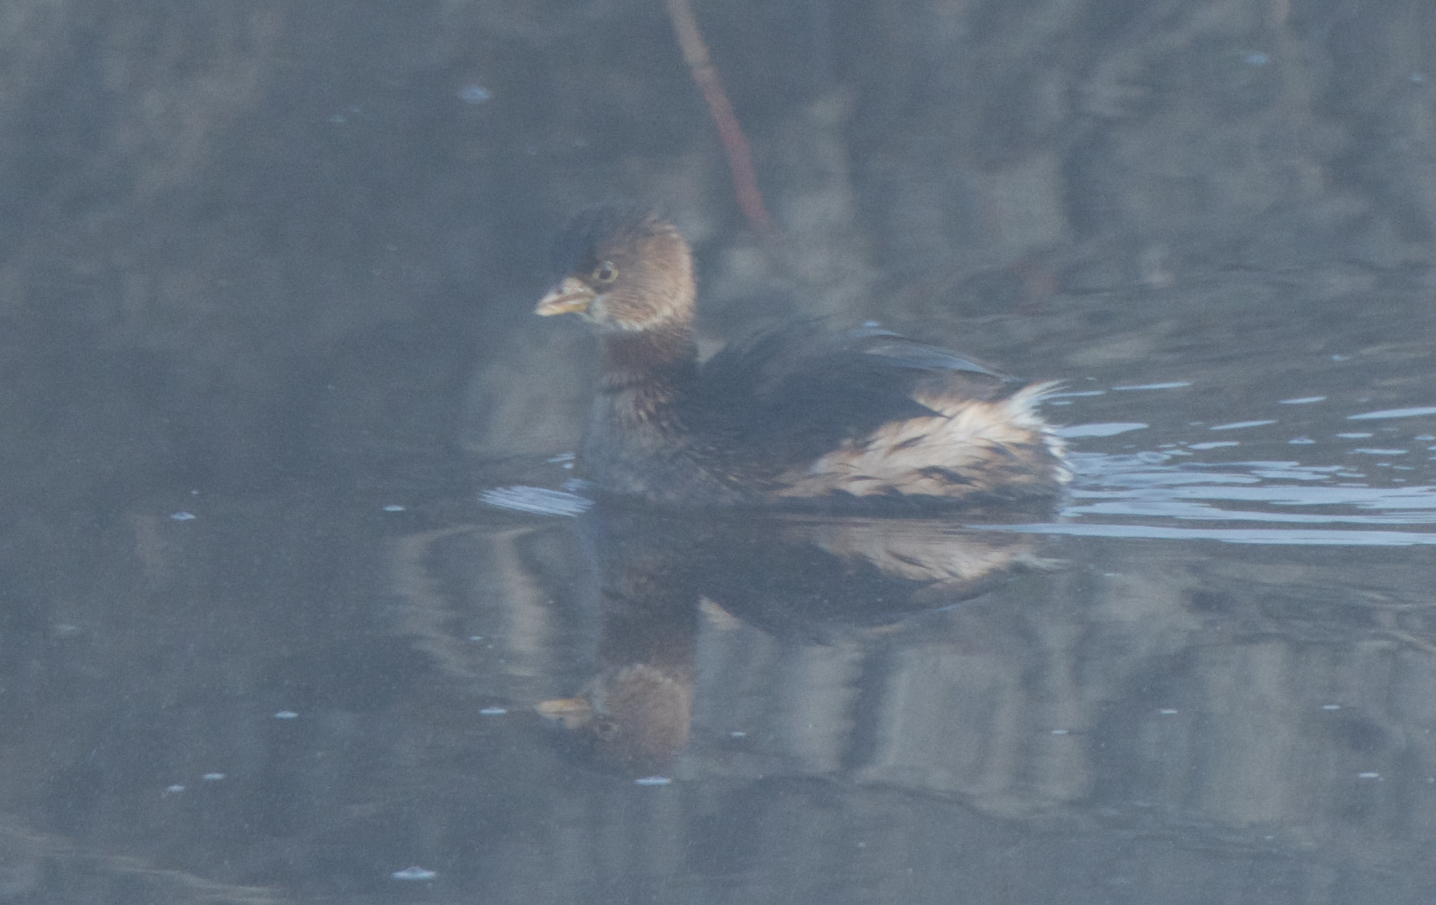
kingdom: Animalia
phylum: Chordata
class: Aves
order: Podicipediformes
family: Podicipedidae
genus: Podilymbus
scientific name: Podilymbus podiceps
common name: Pied-billed grebe
